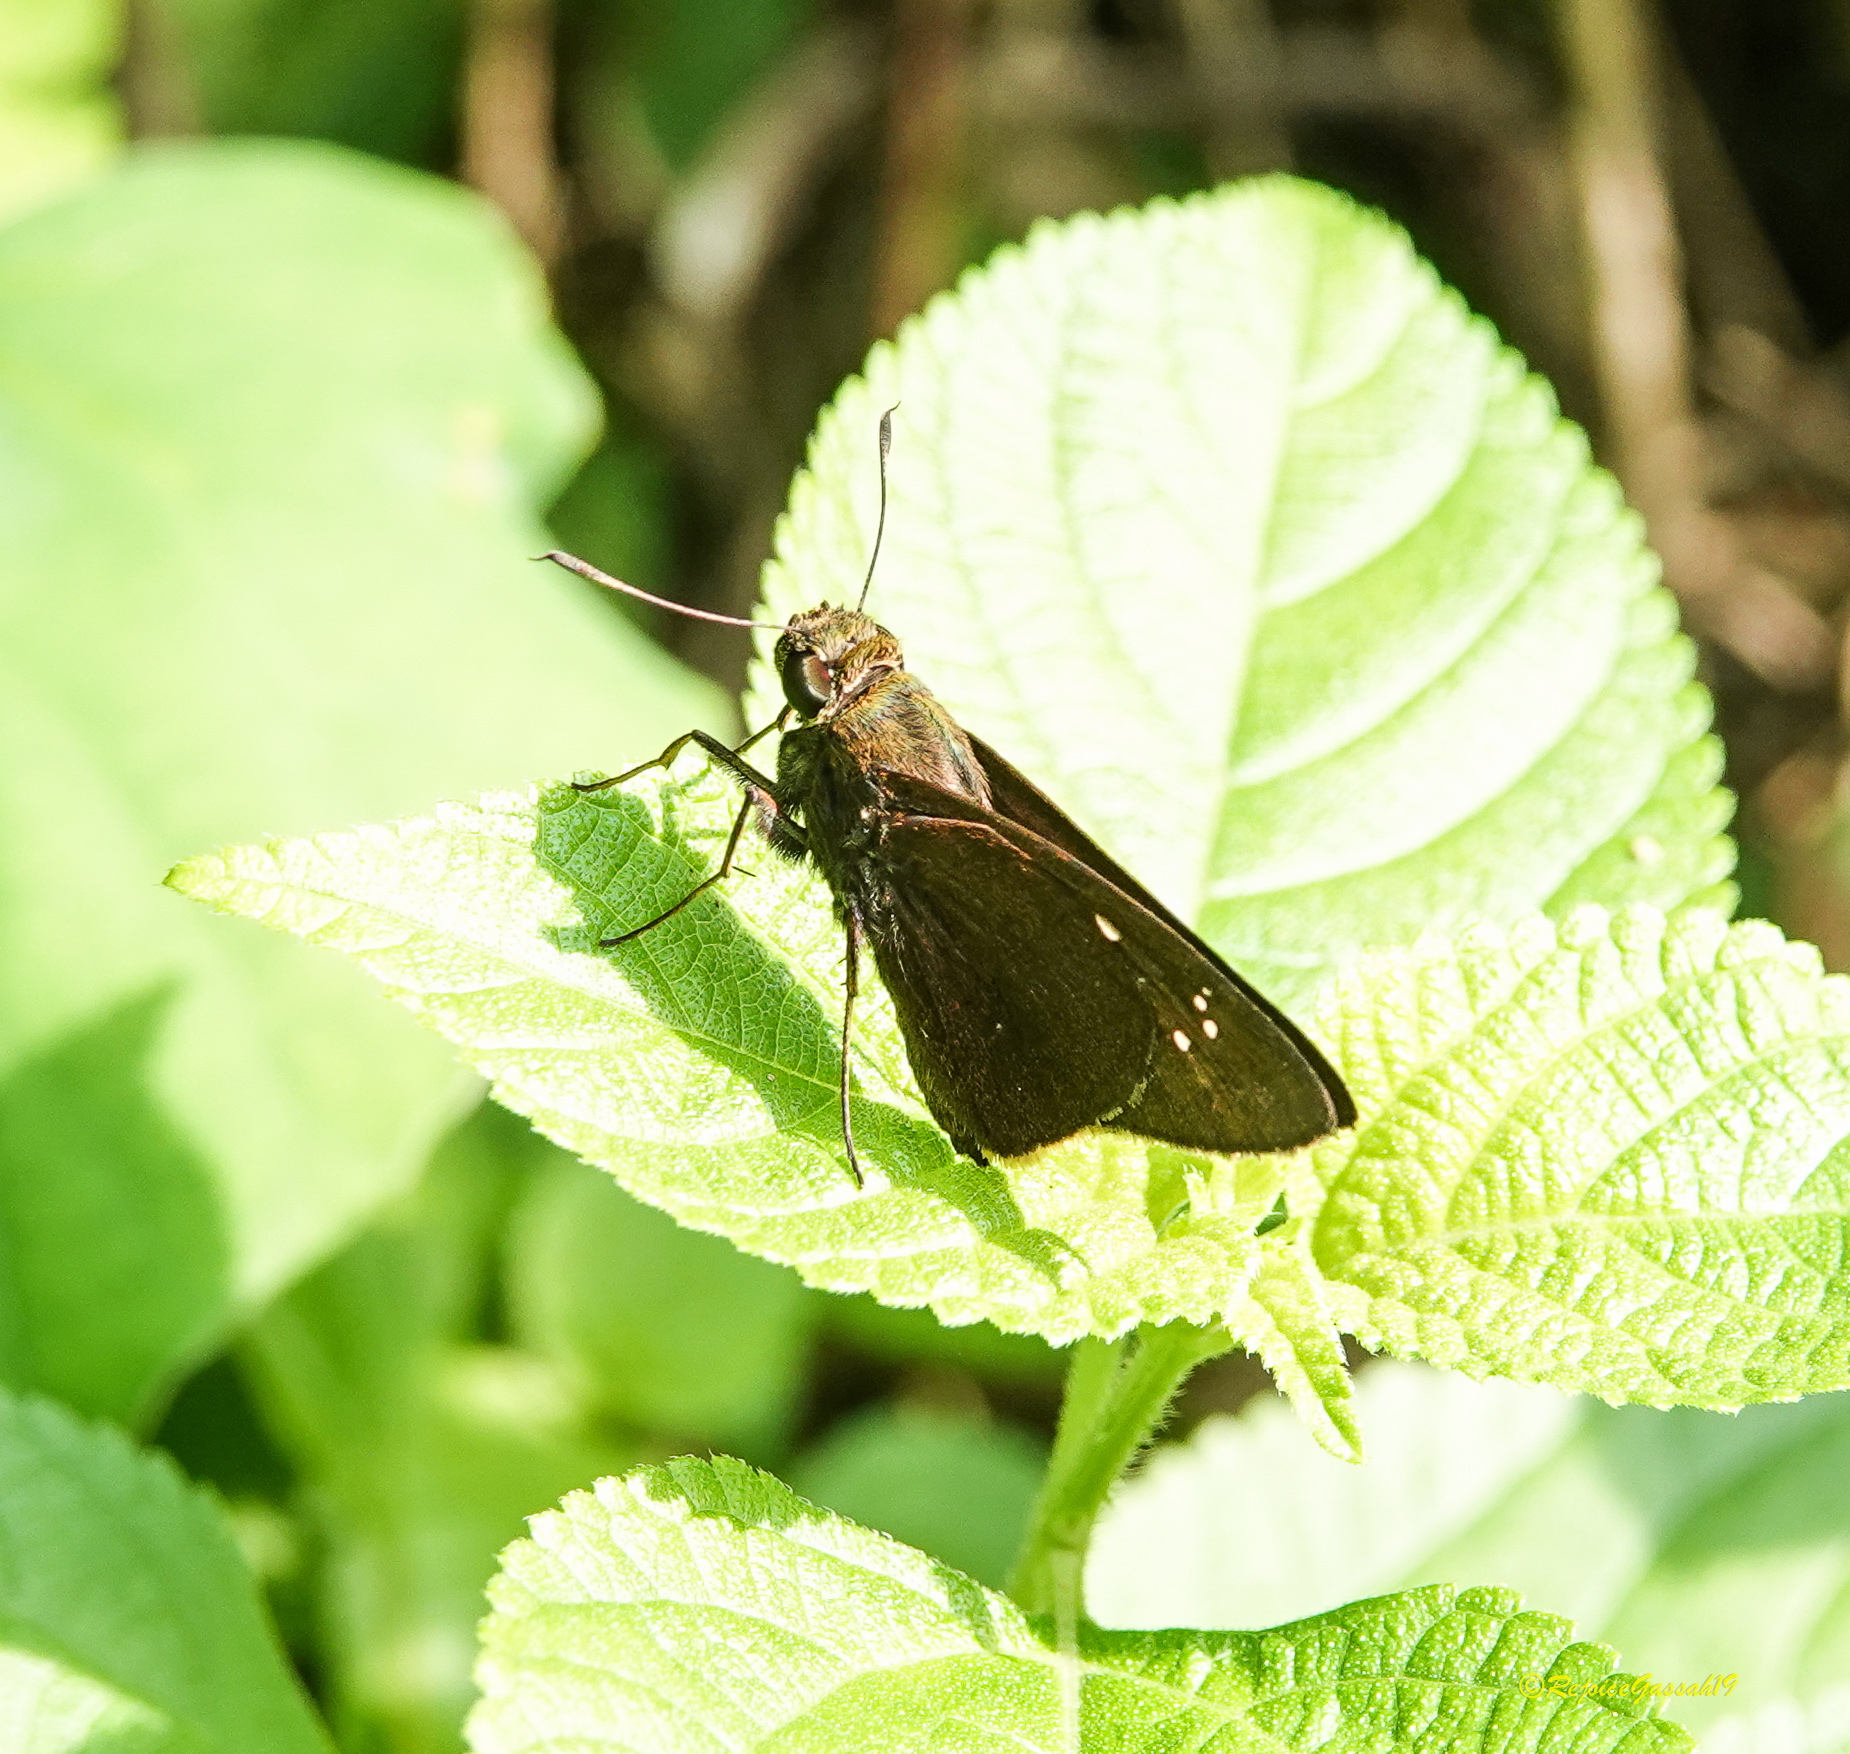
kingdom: Animalia
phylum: Arthropoda
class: Insecta
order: Lepidoptera
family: Hesperiidae
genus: Baoris
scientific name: Baoris farri
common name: Paintbrush swift
